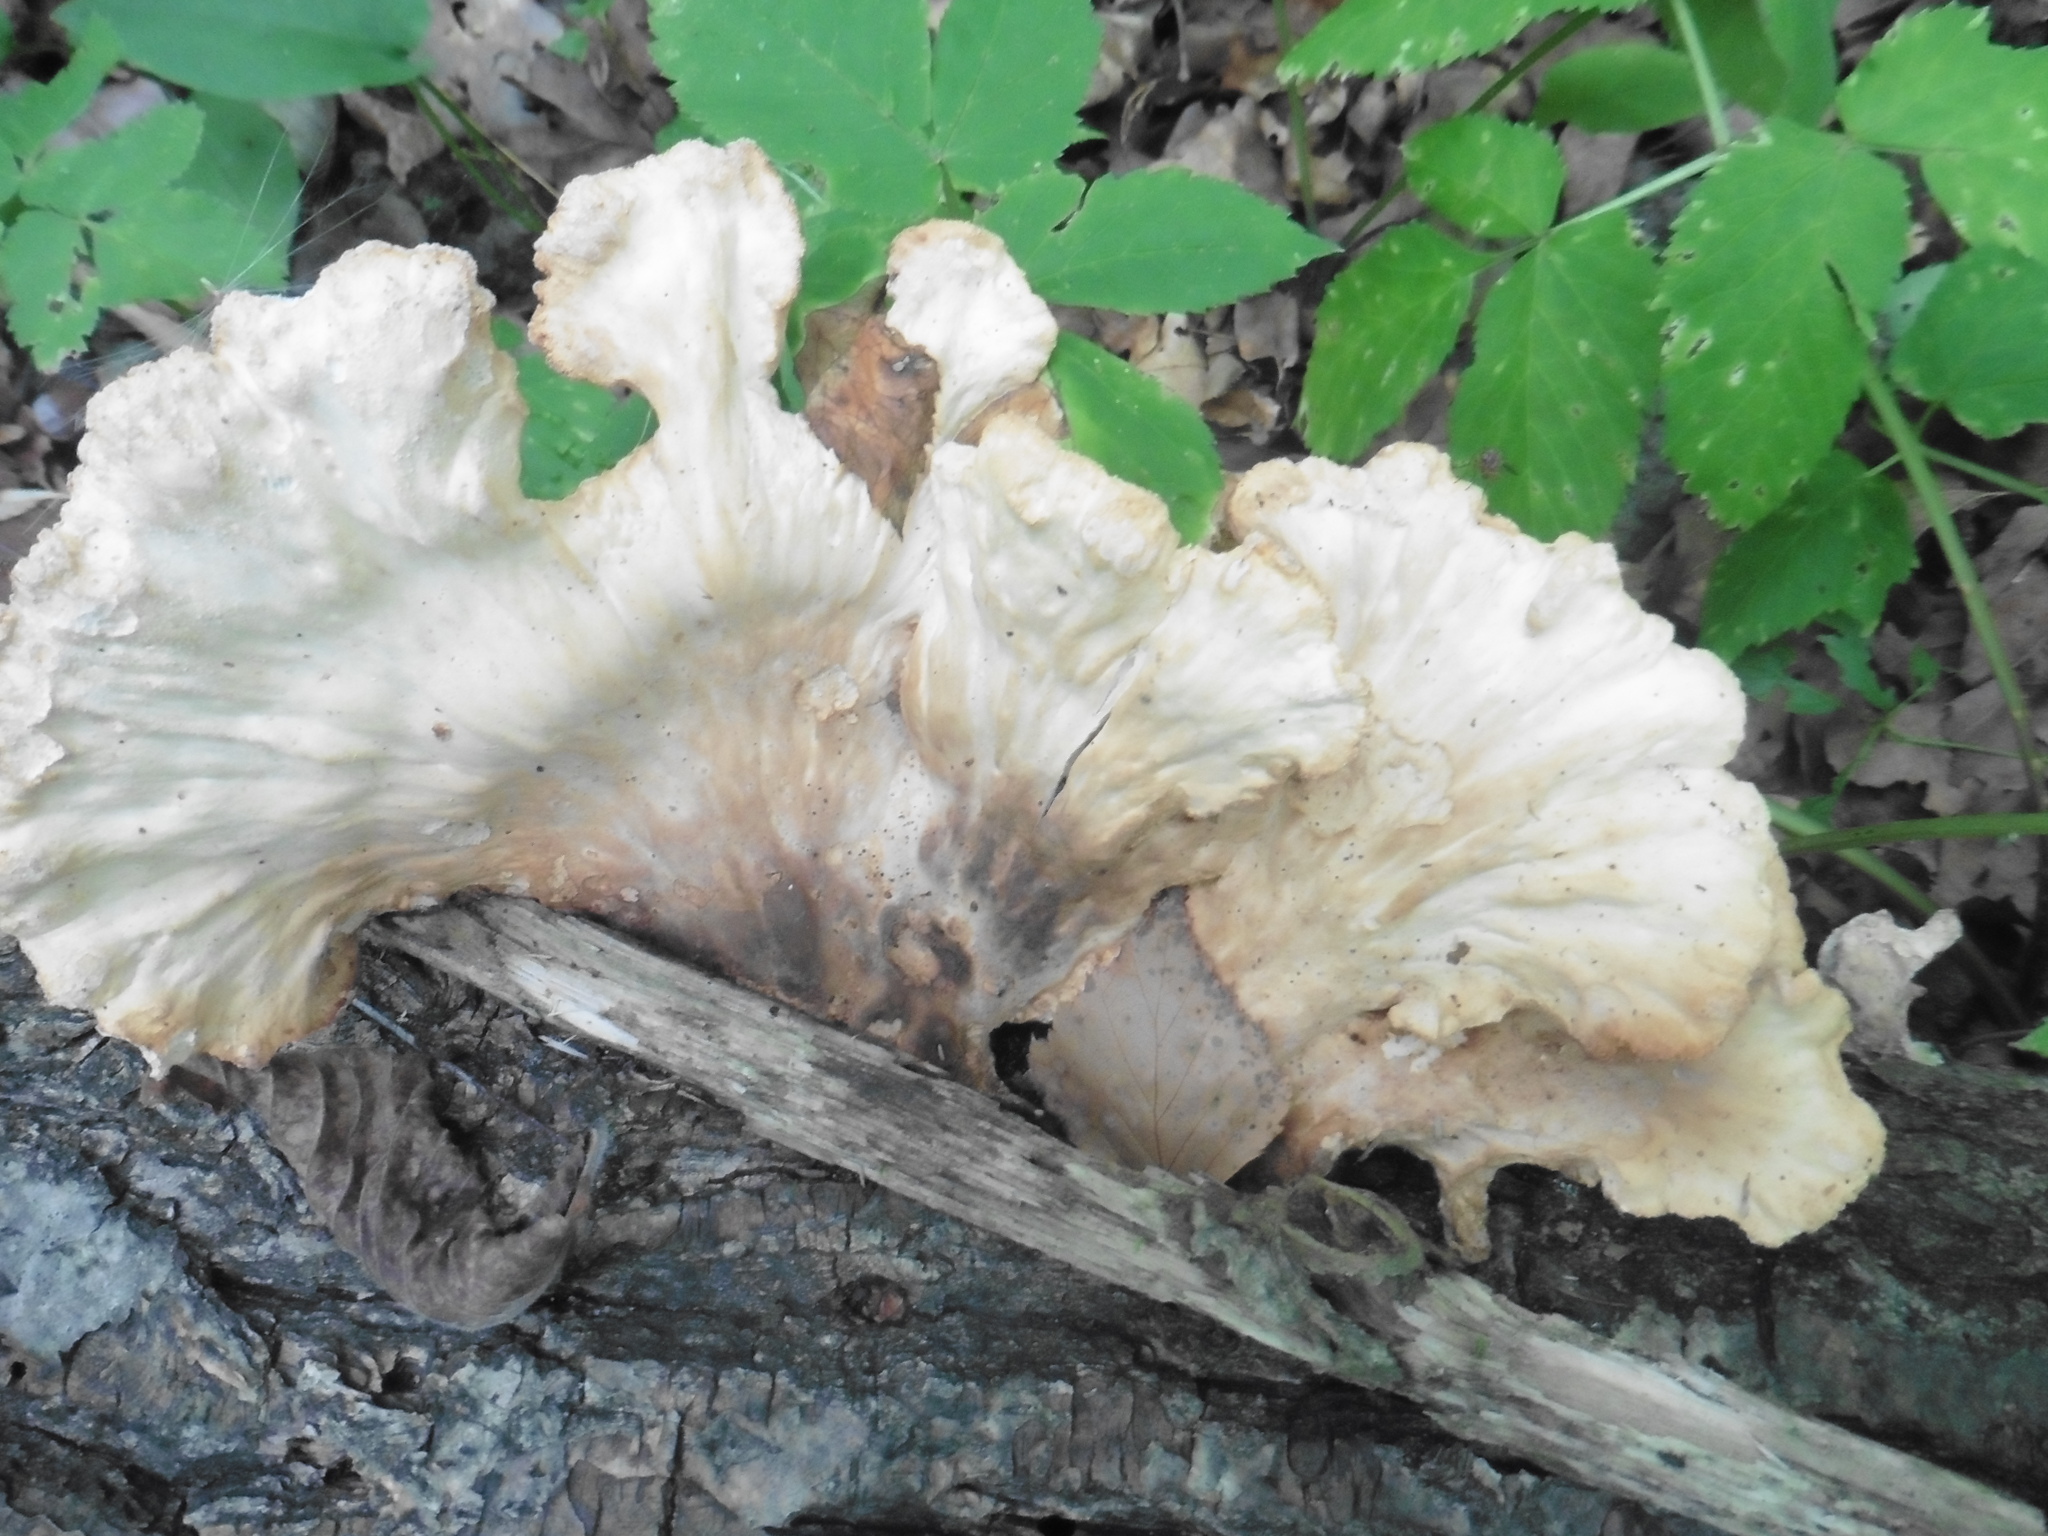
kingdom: Fungi
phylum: Basidiomycota
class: Agaricomycetes
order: Polyporales
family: Laetiporaceae
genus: Laetiporus
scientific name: Laetiporus sulphureus
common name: Chicken of the woods
